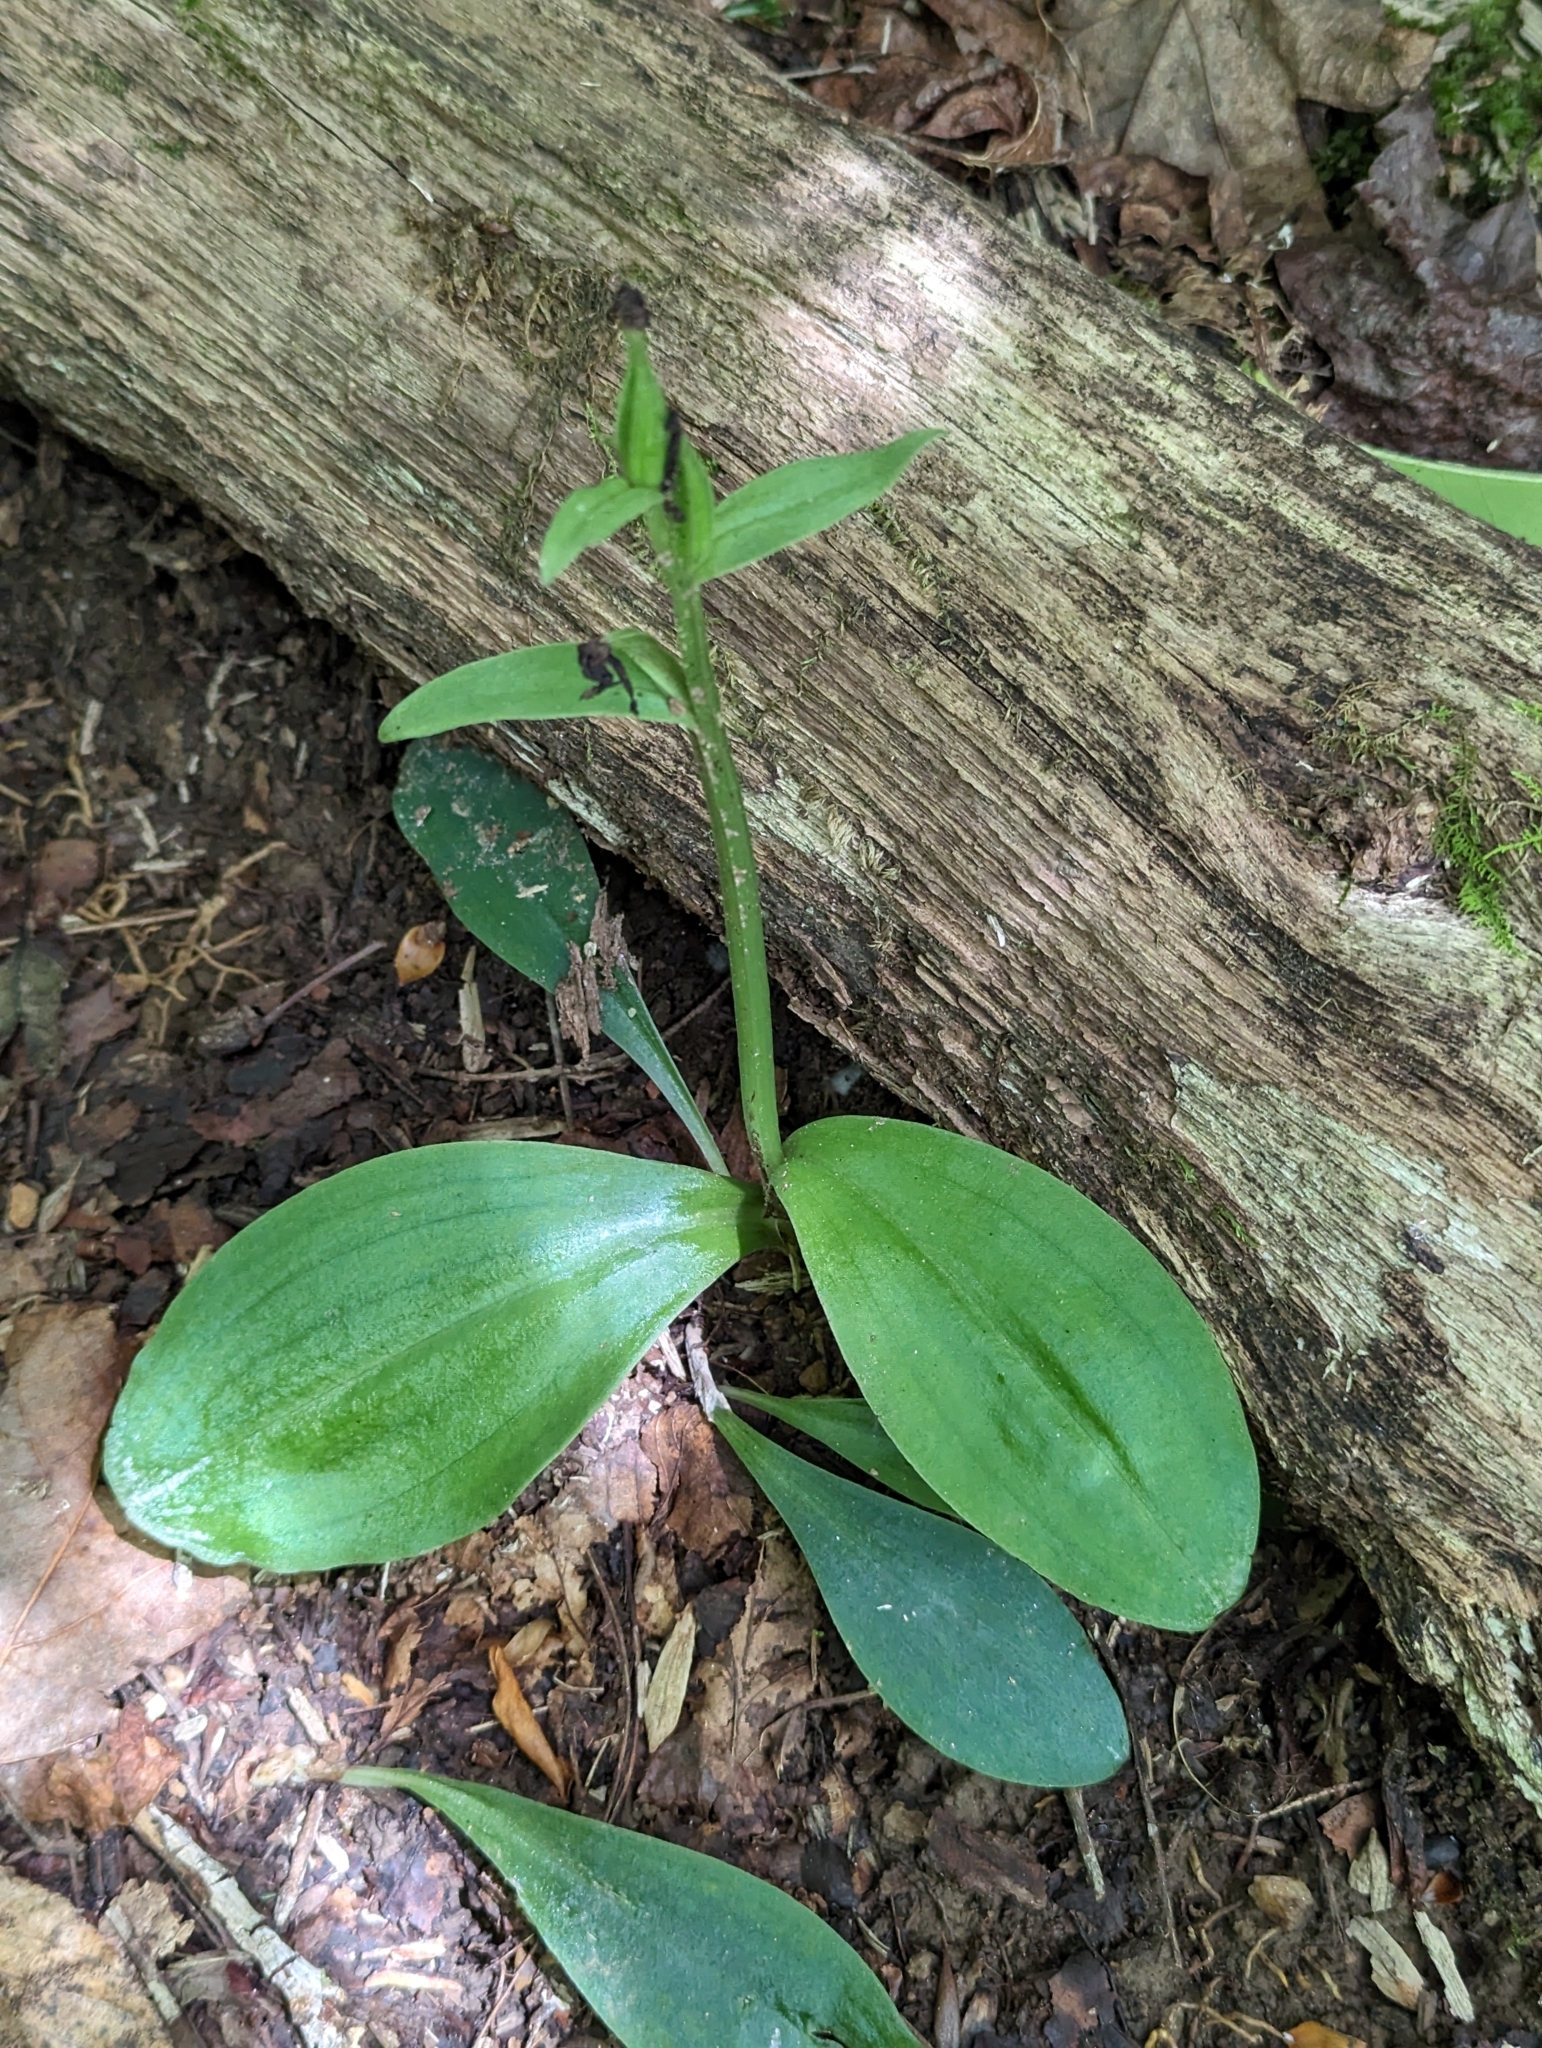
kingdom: Plantae
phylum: Tracheophyta
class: Liliopsida
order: Asparagales
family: Orchidaceae
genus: Galearis
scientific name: Galearis spectabilis
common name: Purple-hooded orchis
